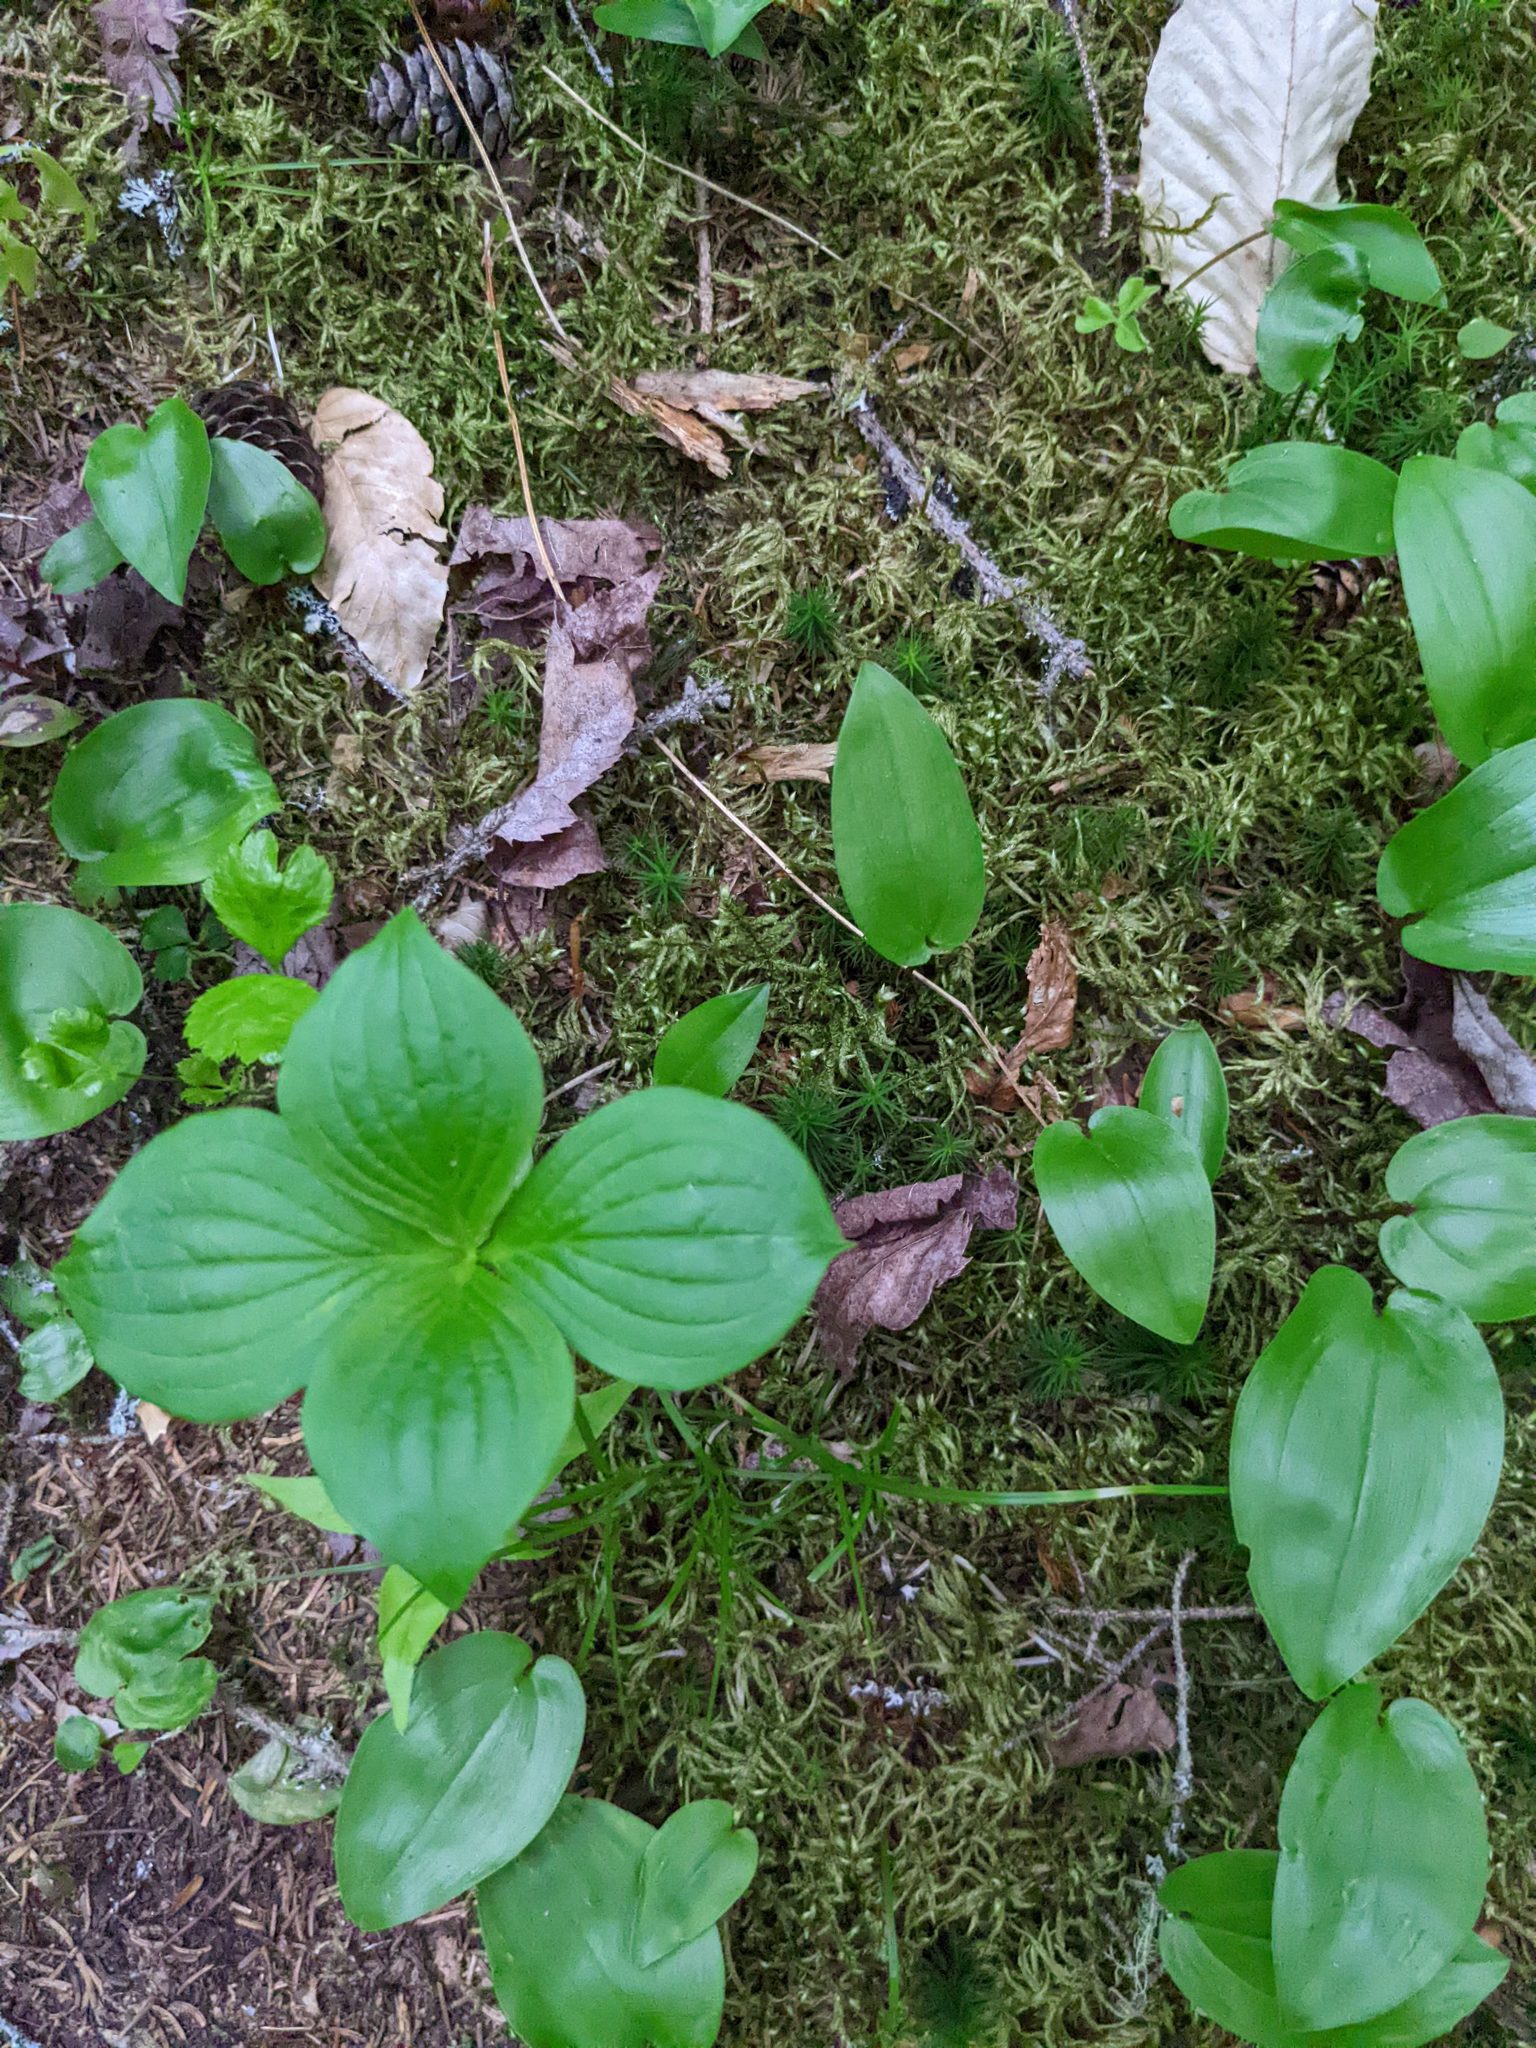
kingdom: Plantae
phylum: Tracheophyta
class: Magnoliopsida
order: Cornales
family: Cornaceae
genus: Cornus
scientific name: Cornus canadensis
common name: Creeping dogwood
